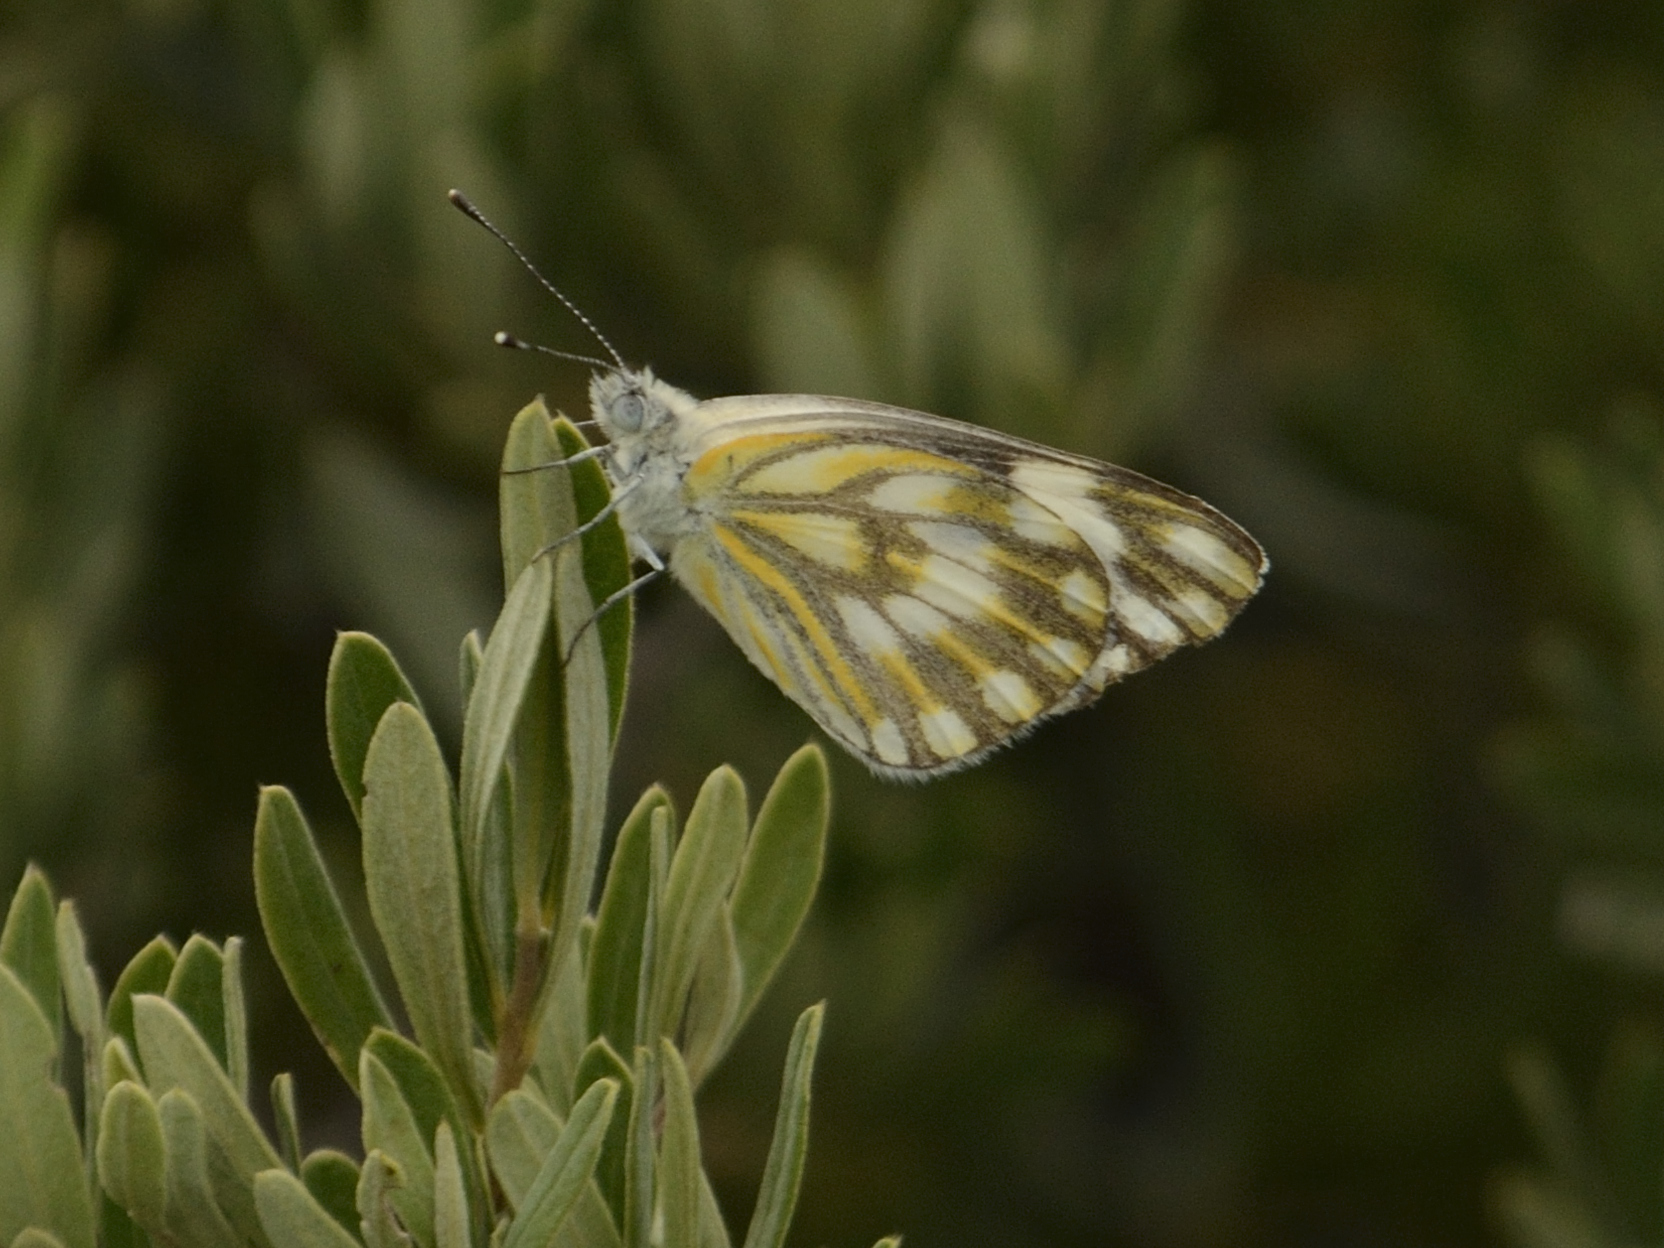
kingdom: Animalia
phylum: Arthropoda
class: Insecta
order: Lepidoptera
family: Pieridae
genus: Pontia
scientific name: Pontia helice
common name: Meadow white
